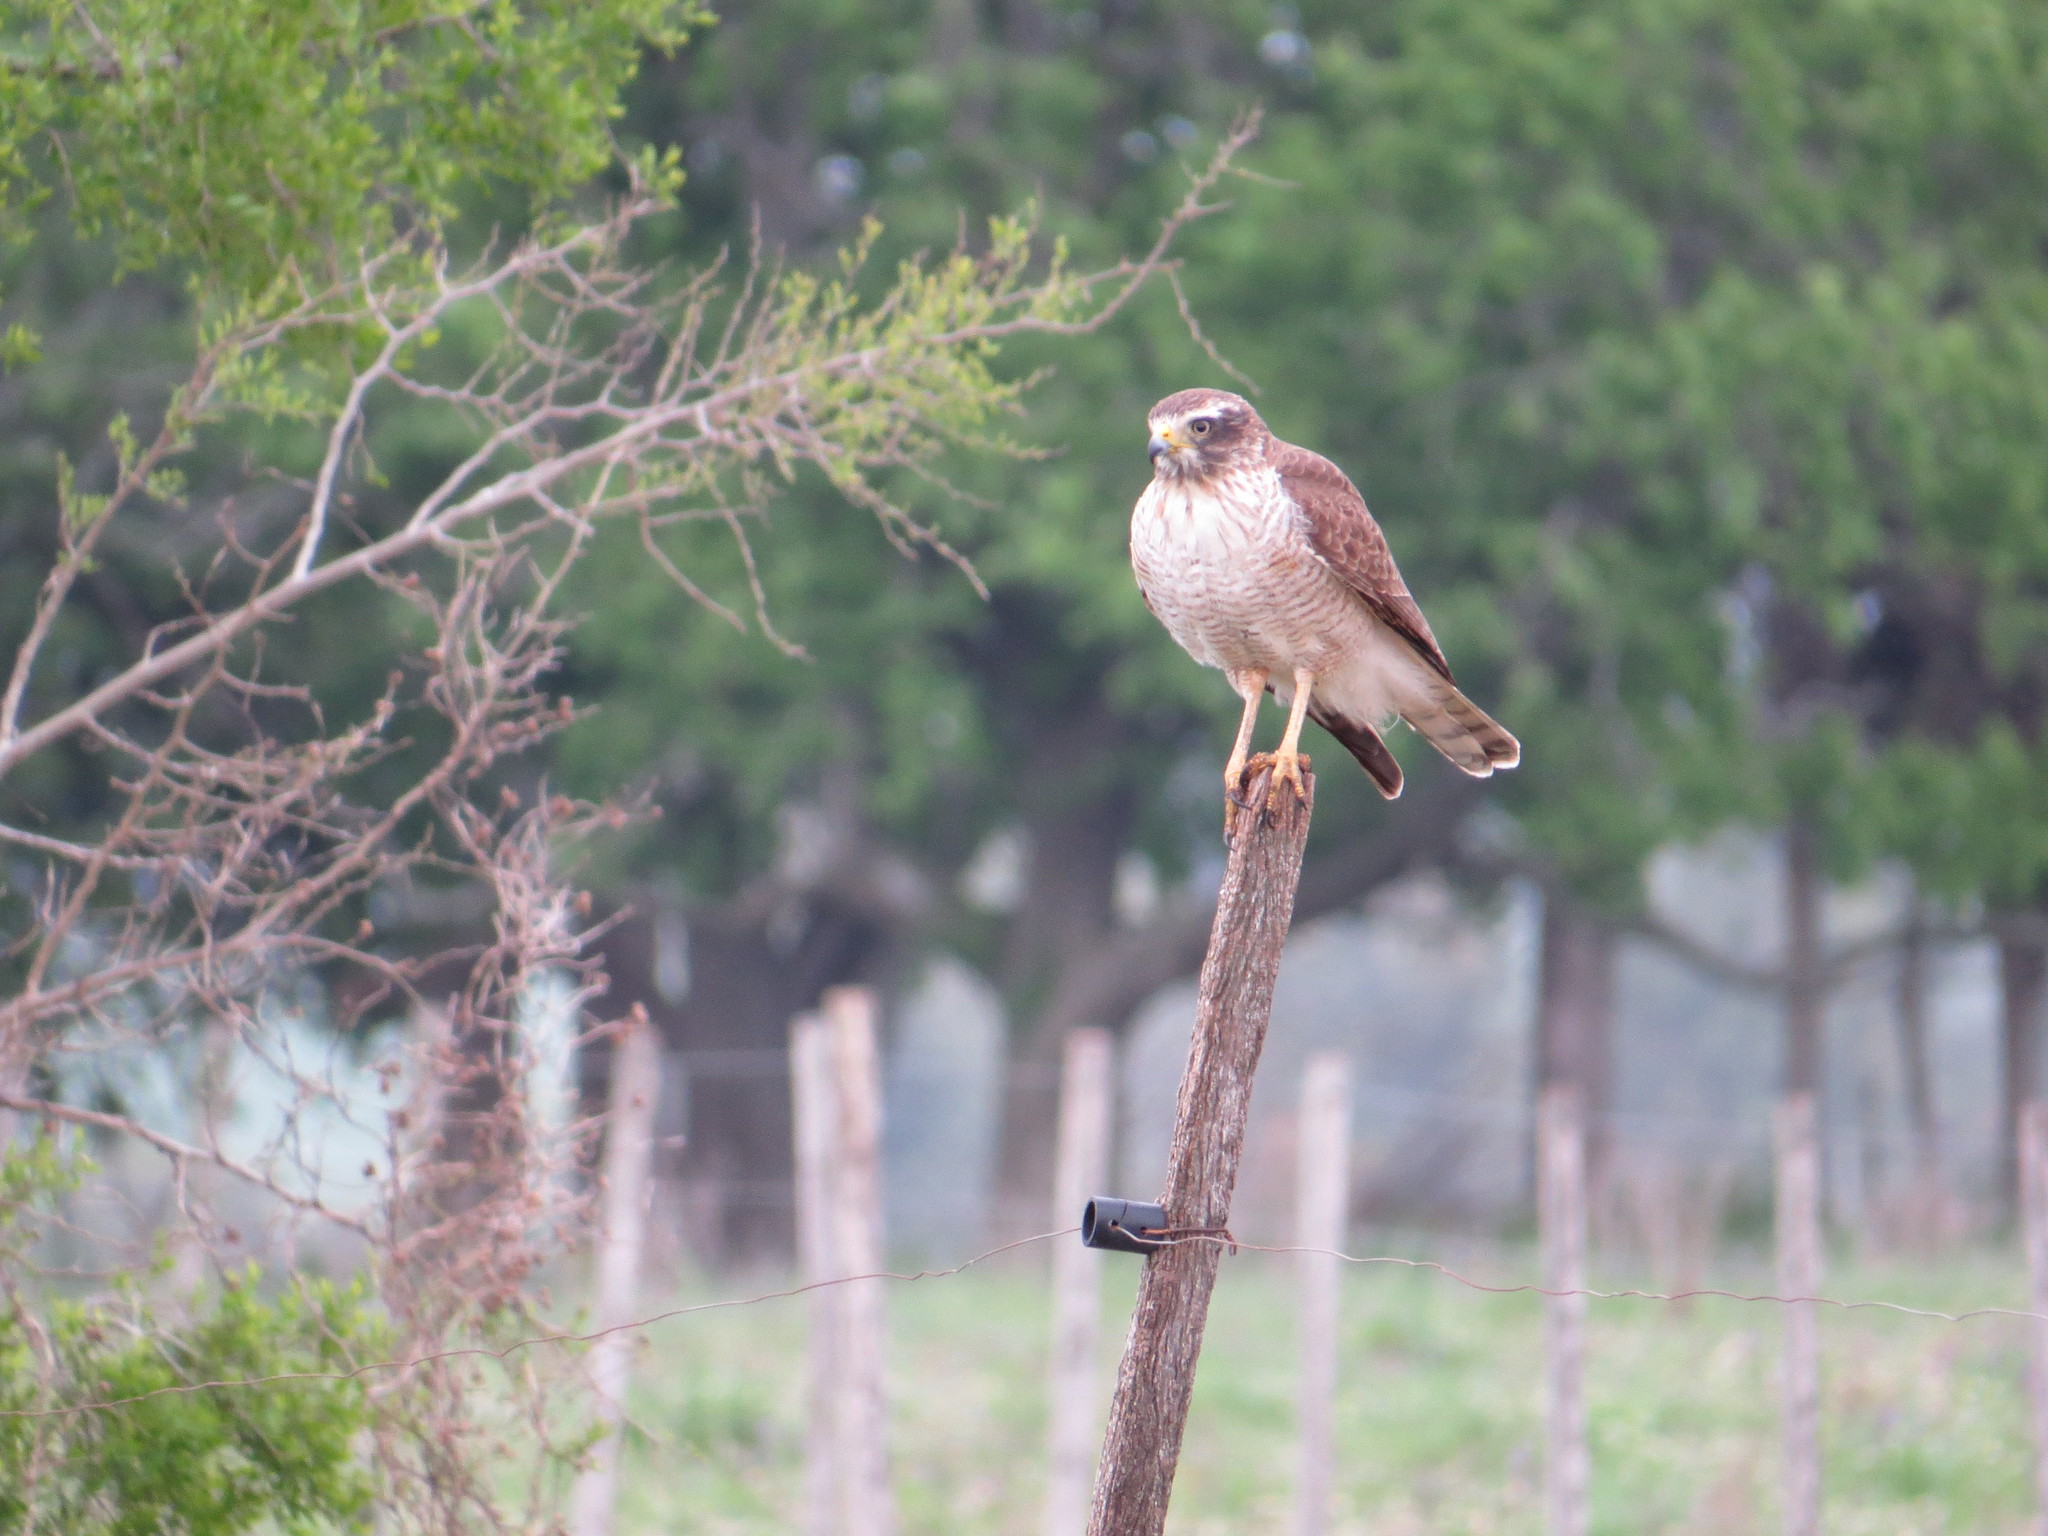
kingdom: Animalia
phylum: Chordata
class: Aves
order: Accipitriformes
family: Accipitridae
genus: Rupornis
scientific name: Rupornis magnirostris
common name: Roadside hawk
